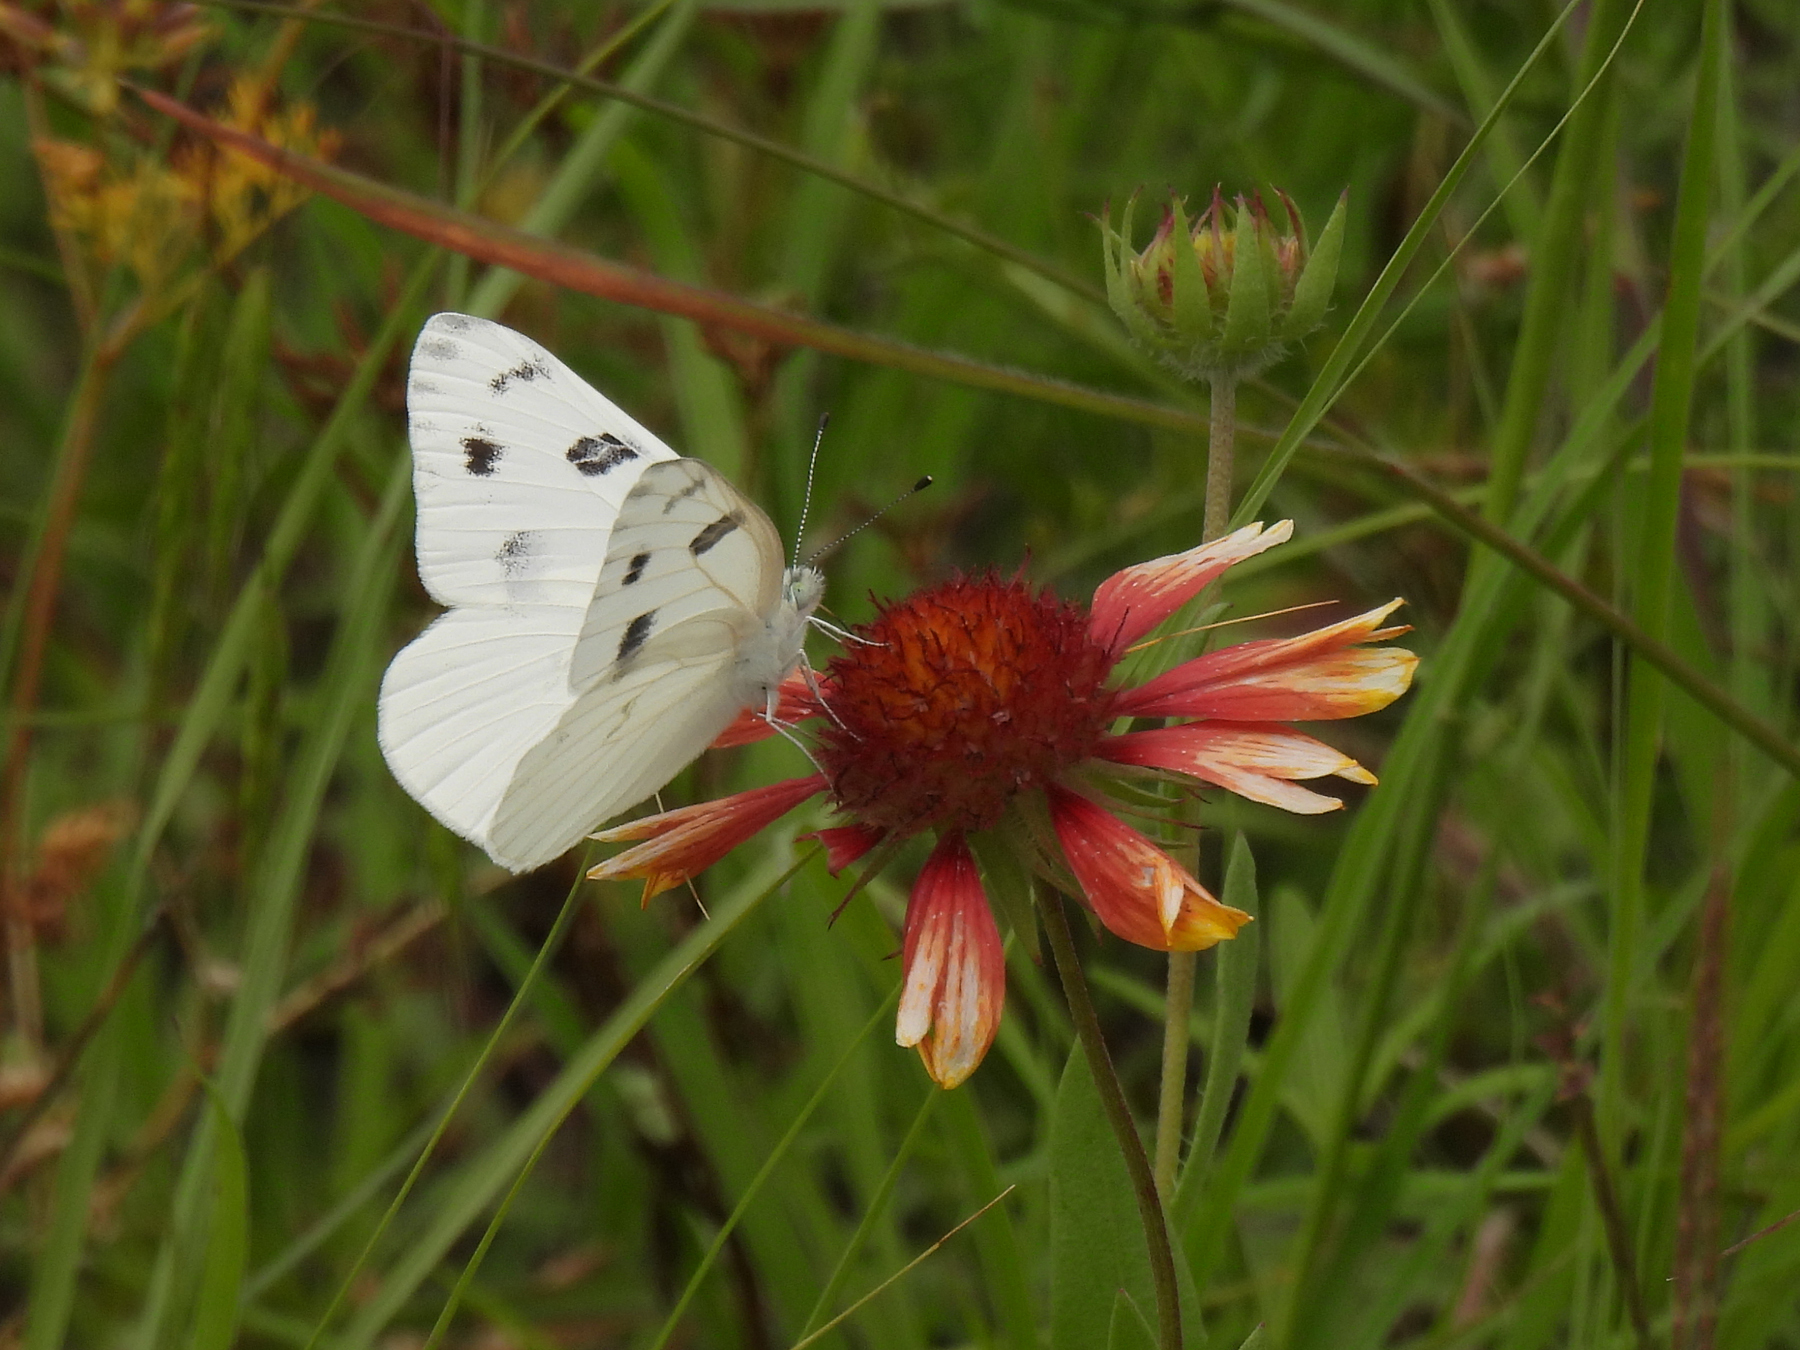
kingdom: Animalia
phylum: Arthropoda
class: Insecta
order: Lepidoptera
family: Pieridae
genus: Pontia
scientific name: Pontia protodice
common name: Checkered white
